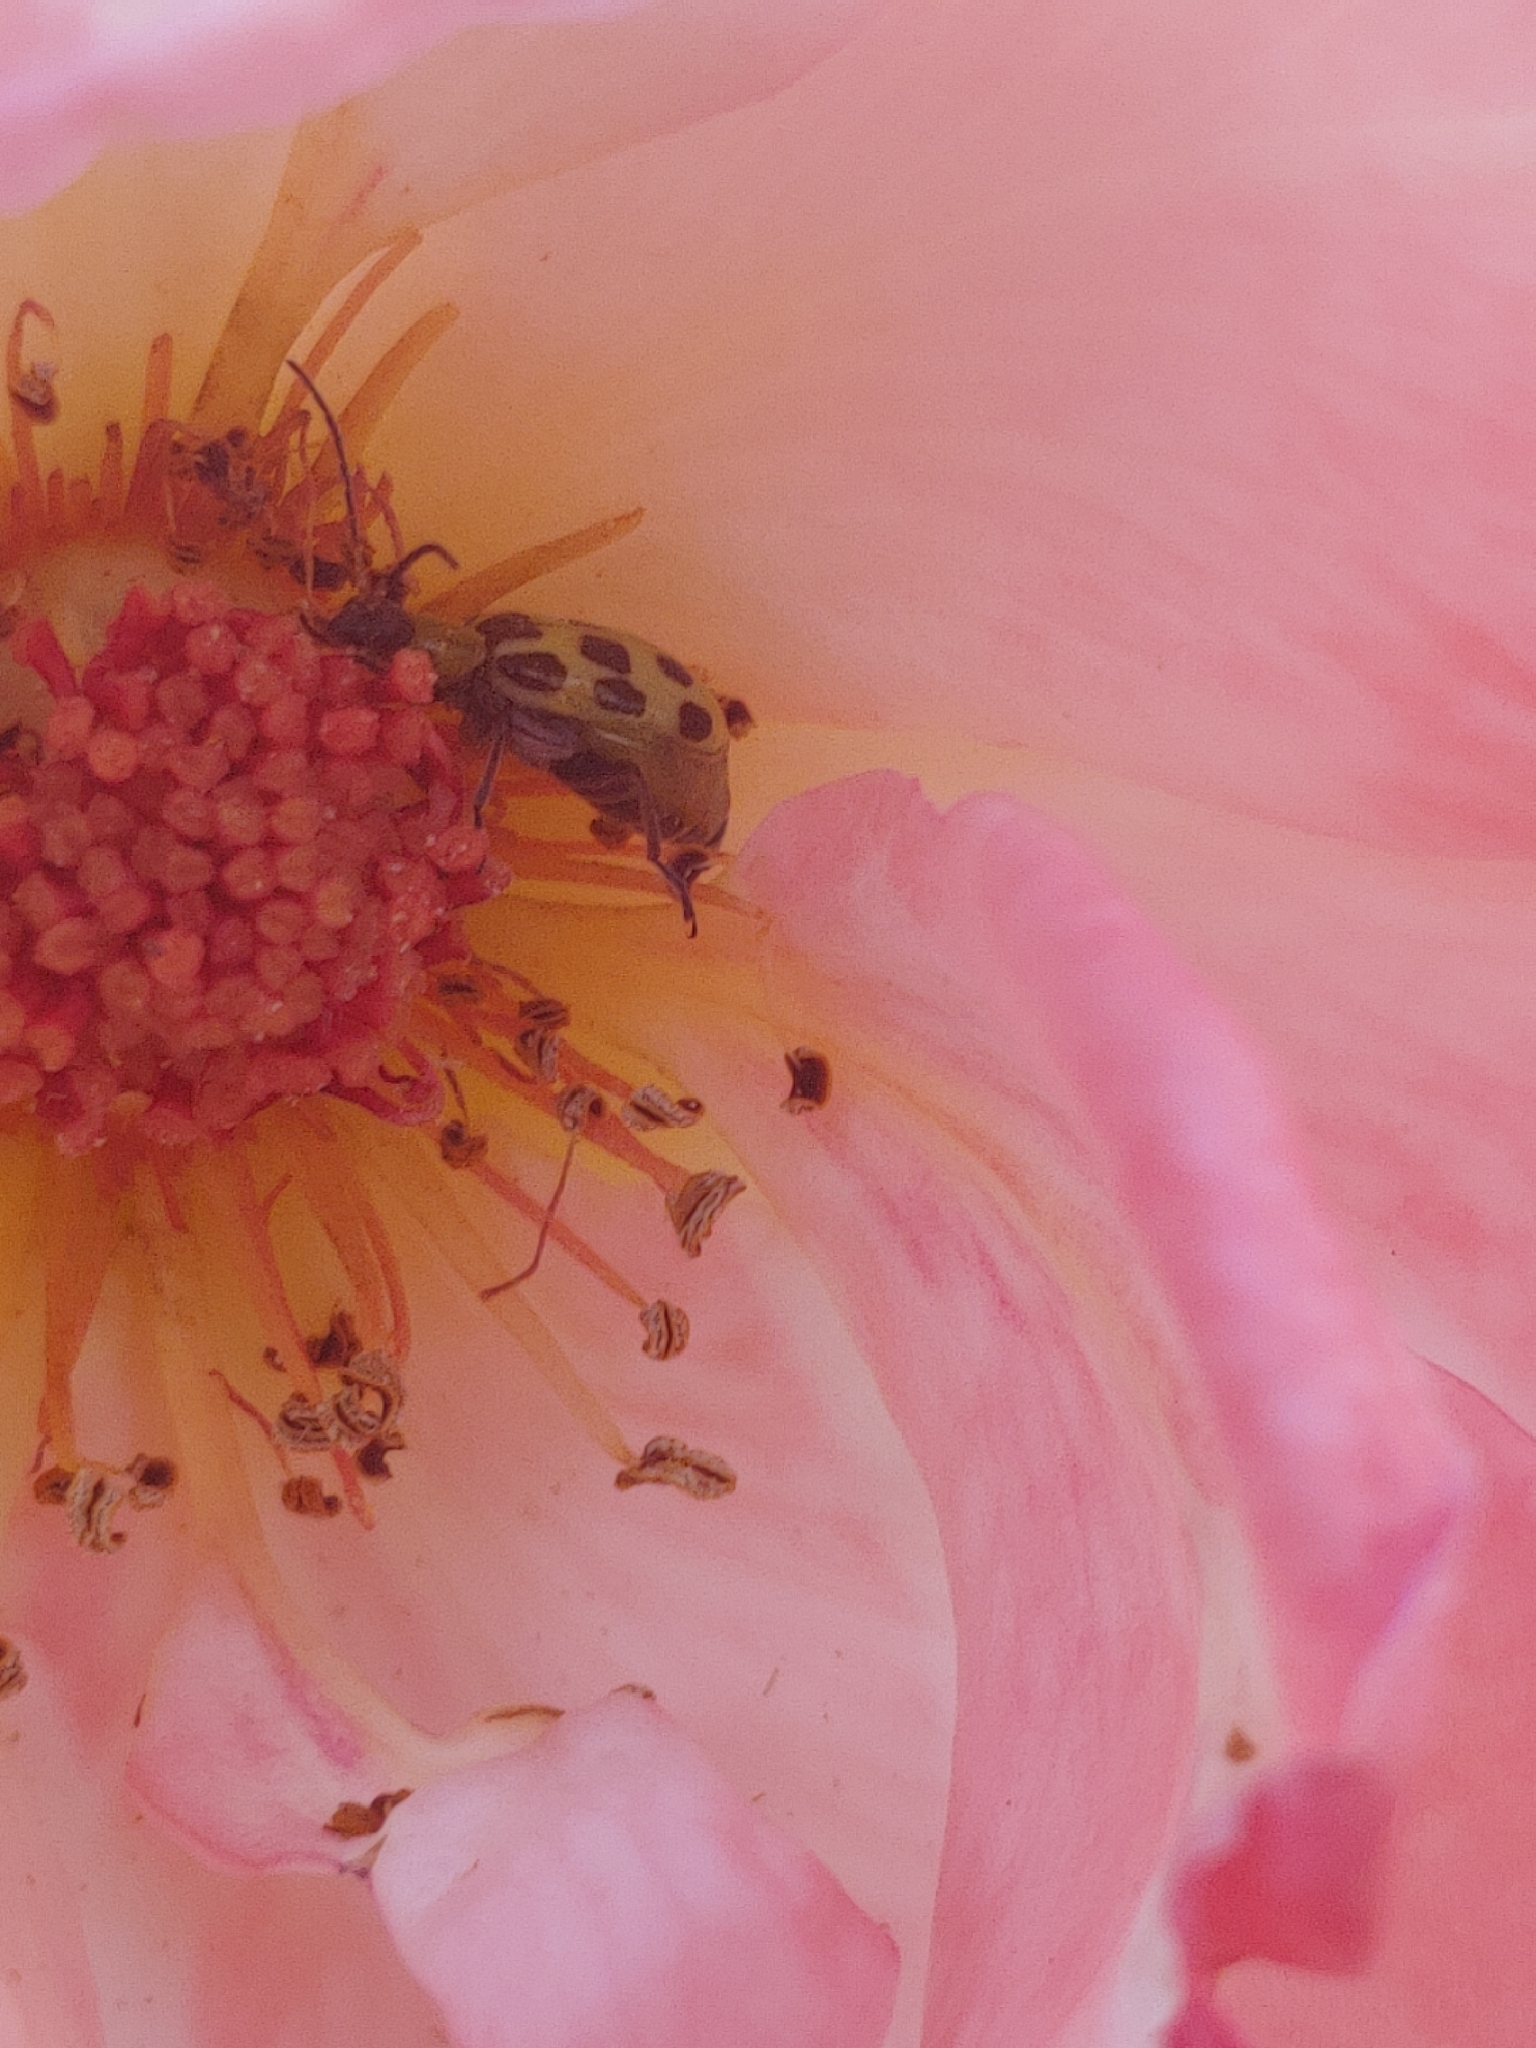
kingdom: Animalia
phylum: Arthropoda
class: Insecta
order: Coleoptera
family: Chrysomelidae
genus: Diabrotica
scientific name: Diabrotica undecimpunctata
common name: Spotted cucumber beetle
